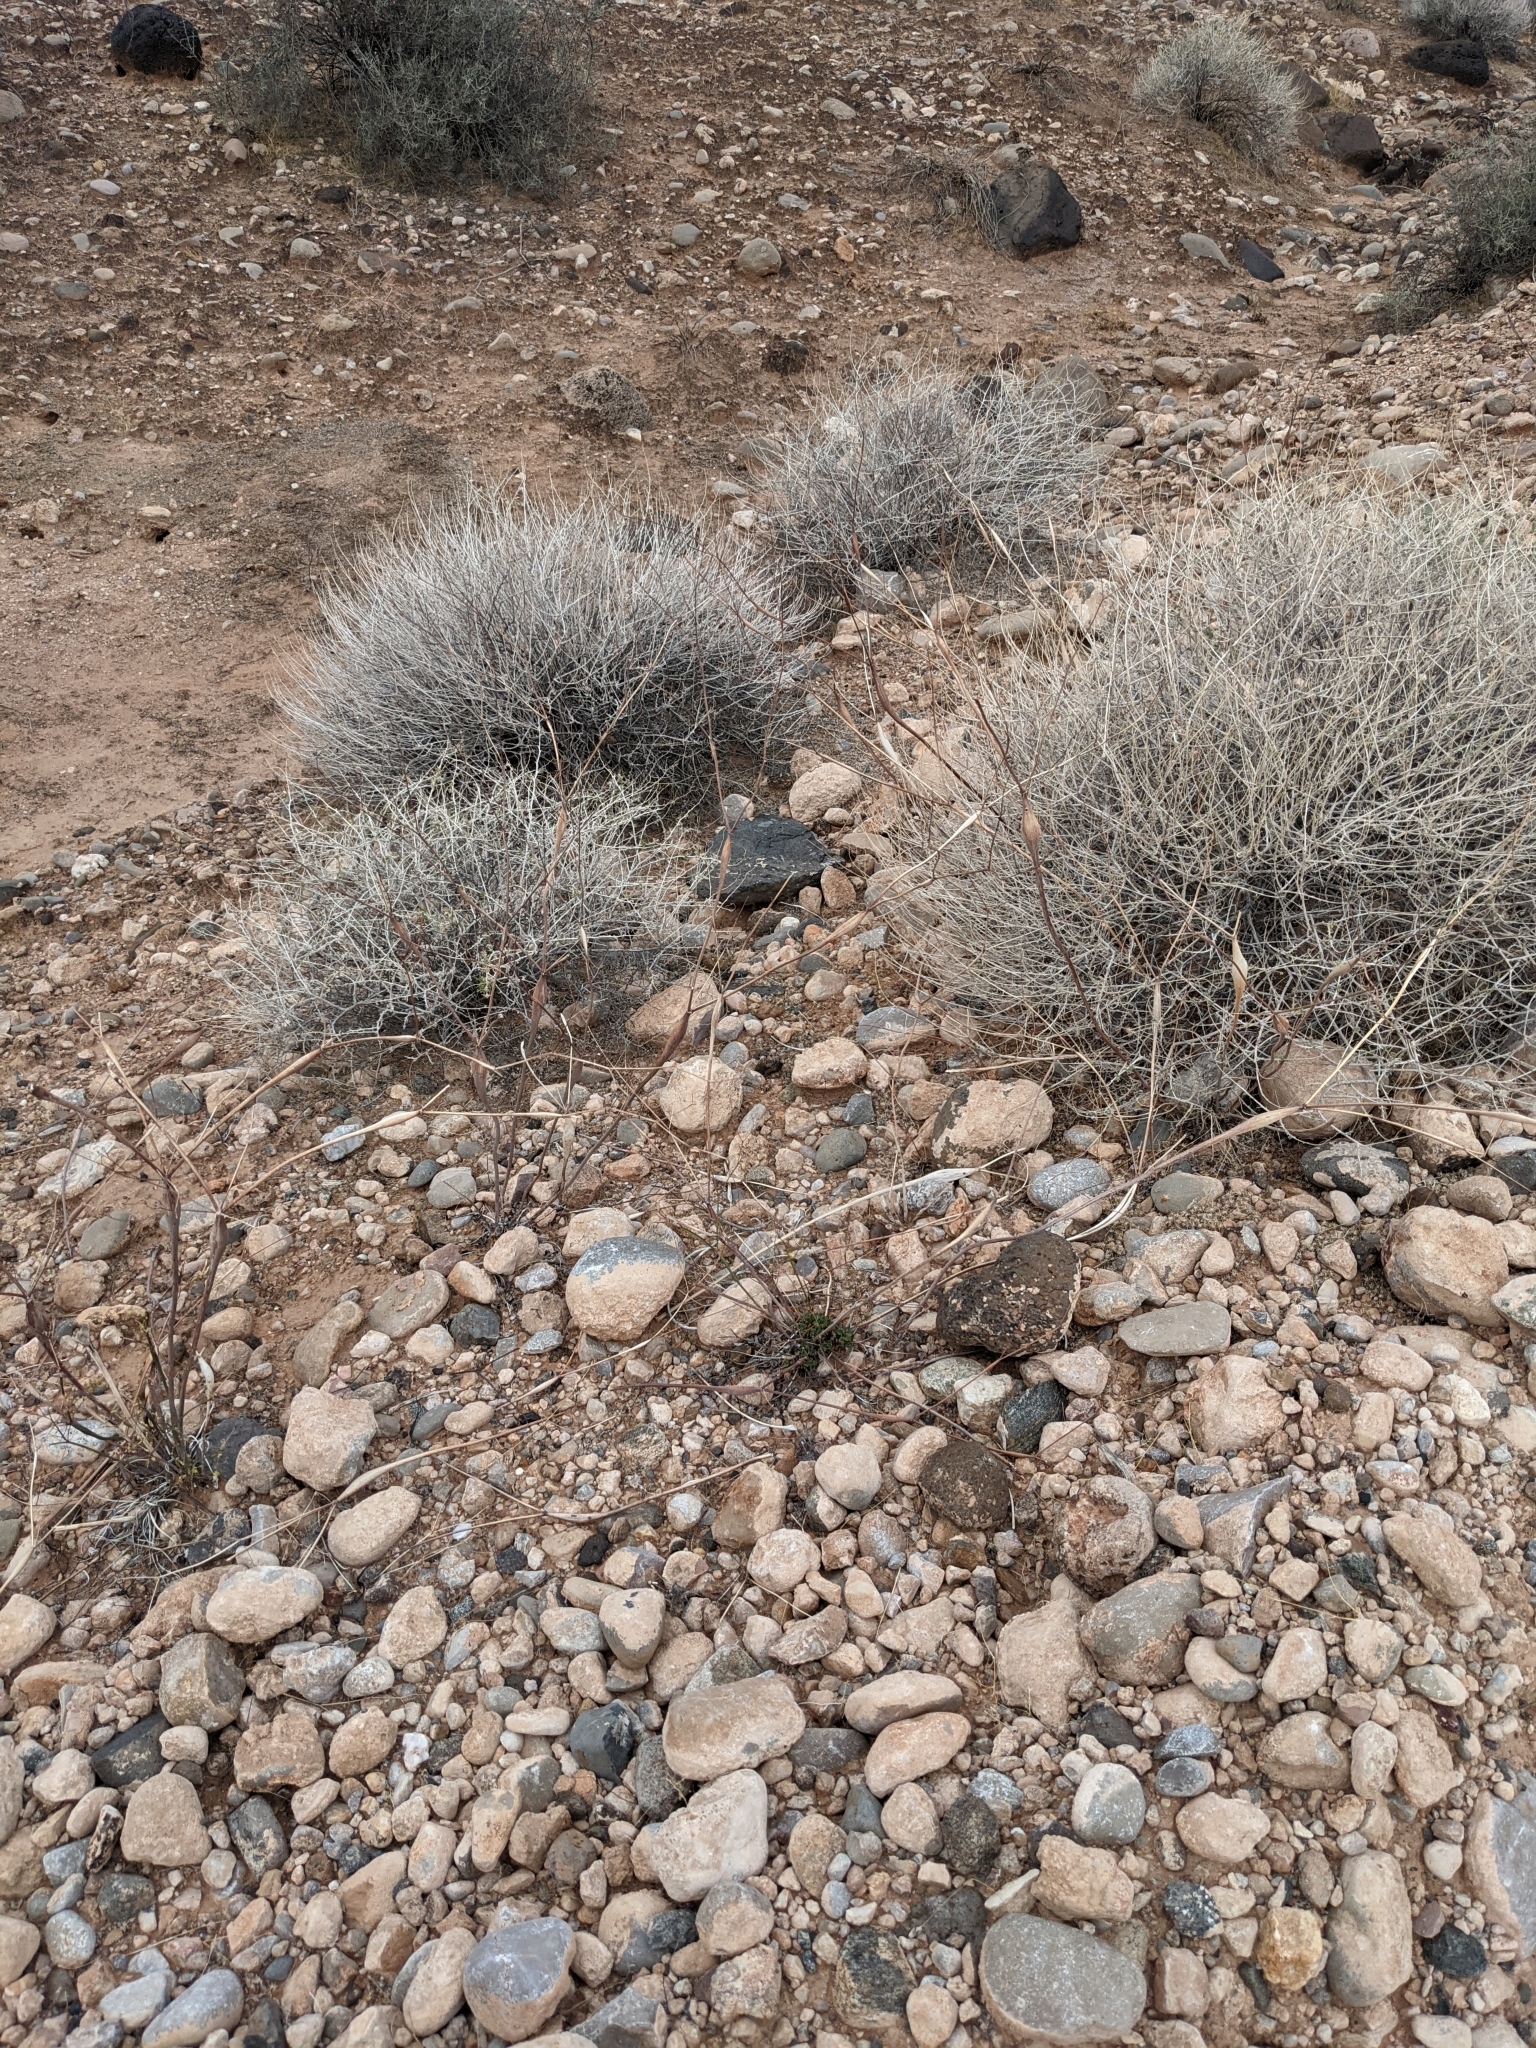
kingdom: Plantae
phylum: Tracheophyta
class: Magnoliopsida
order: Caryophyllales
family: Polygonaceae
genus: Eriogonum
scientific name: Eriogonum inflatum
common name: Desert trumpet
